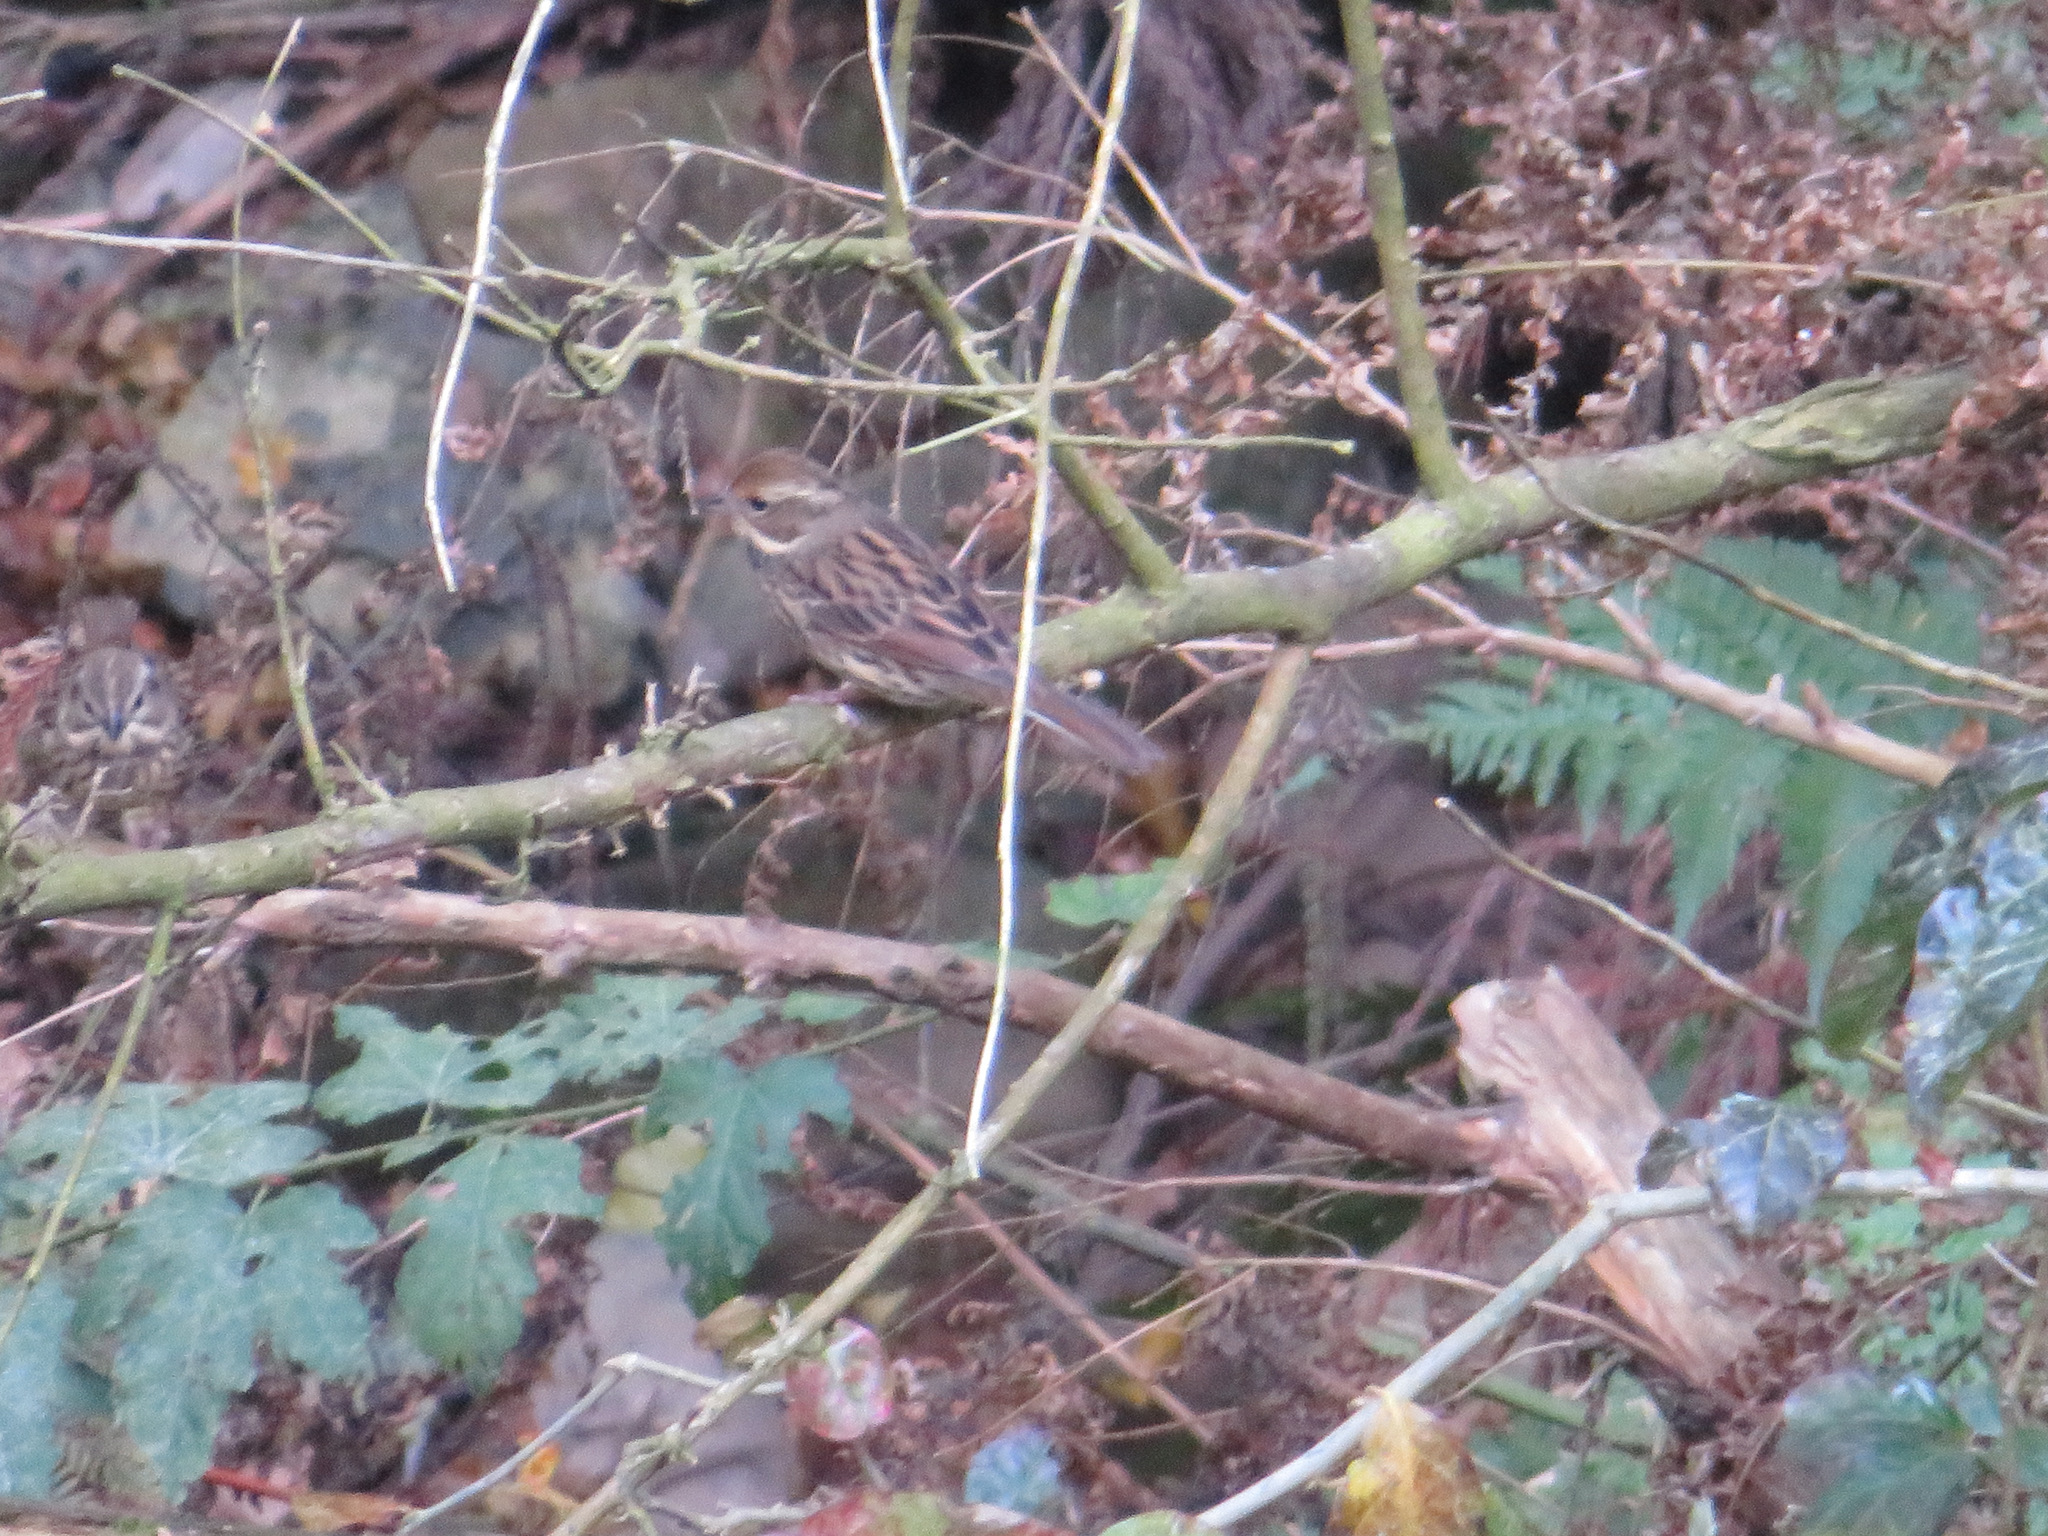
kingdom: Animalia
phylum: Chordata
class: Aves
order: Passeriformes
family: Emberizidae
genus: Emberiza
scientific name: Emberiza personata
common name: Masked bunting
